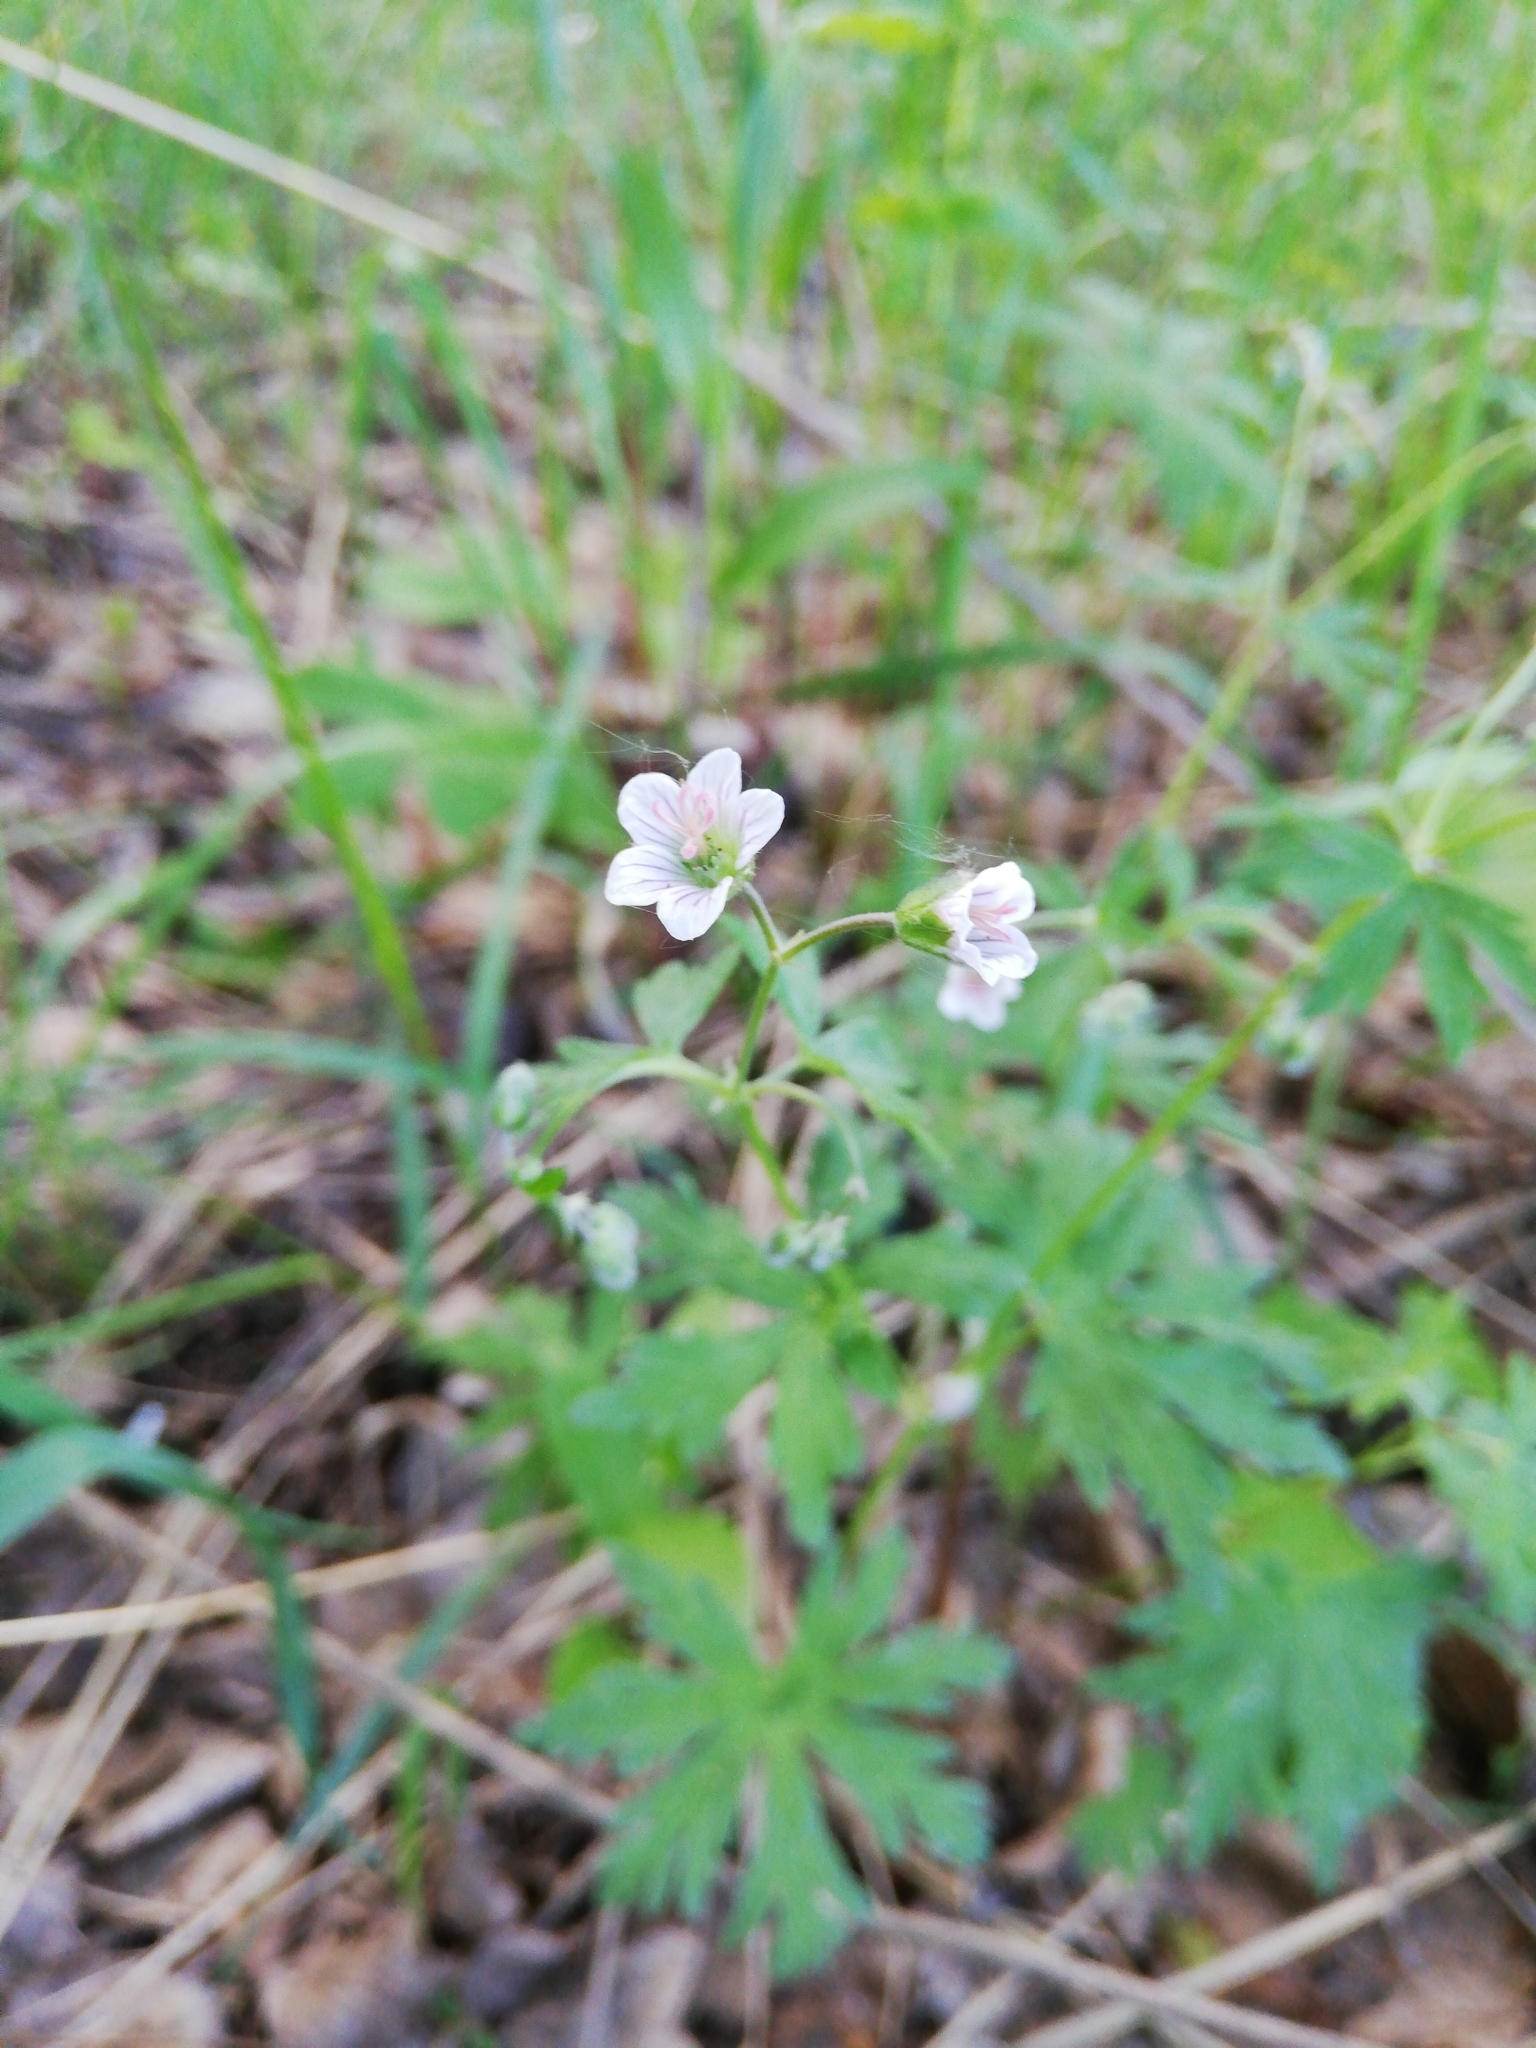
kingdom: Plantae
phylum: Tracheophyta
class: Magnoliopsida
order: Geraniales
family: Geraniaceae
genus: Geranium
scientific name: Geranium sibiricum
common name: Siberian crane's-bill
